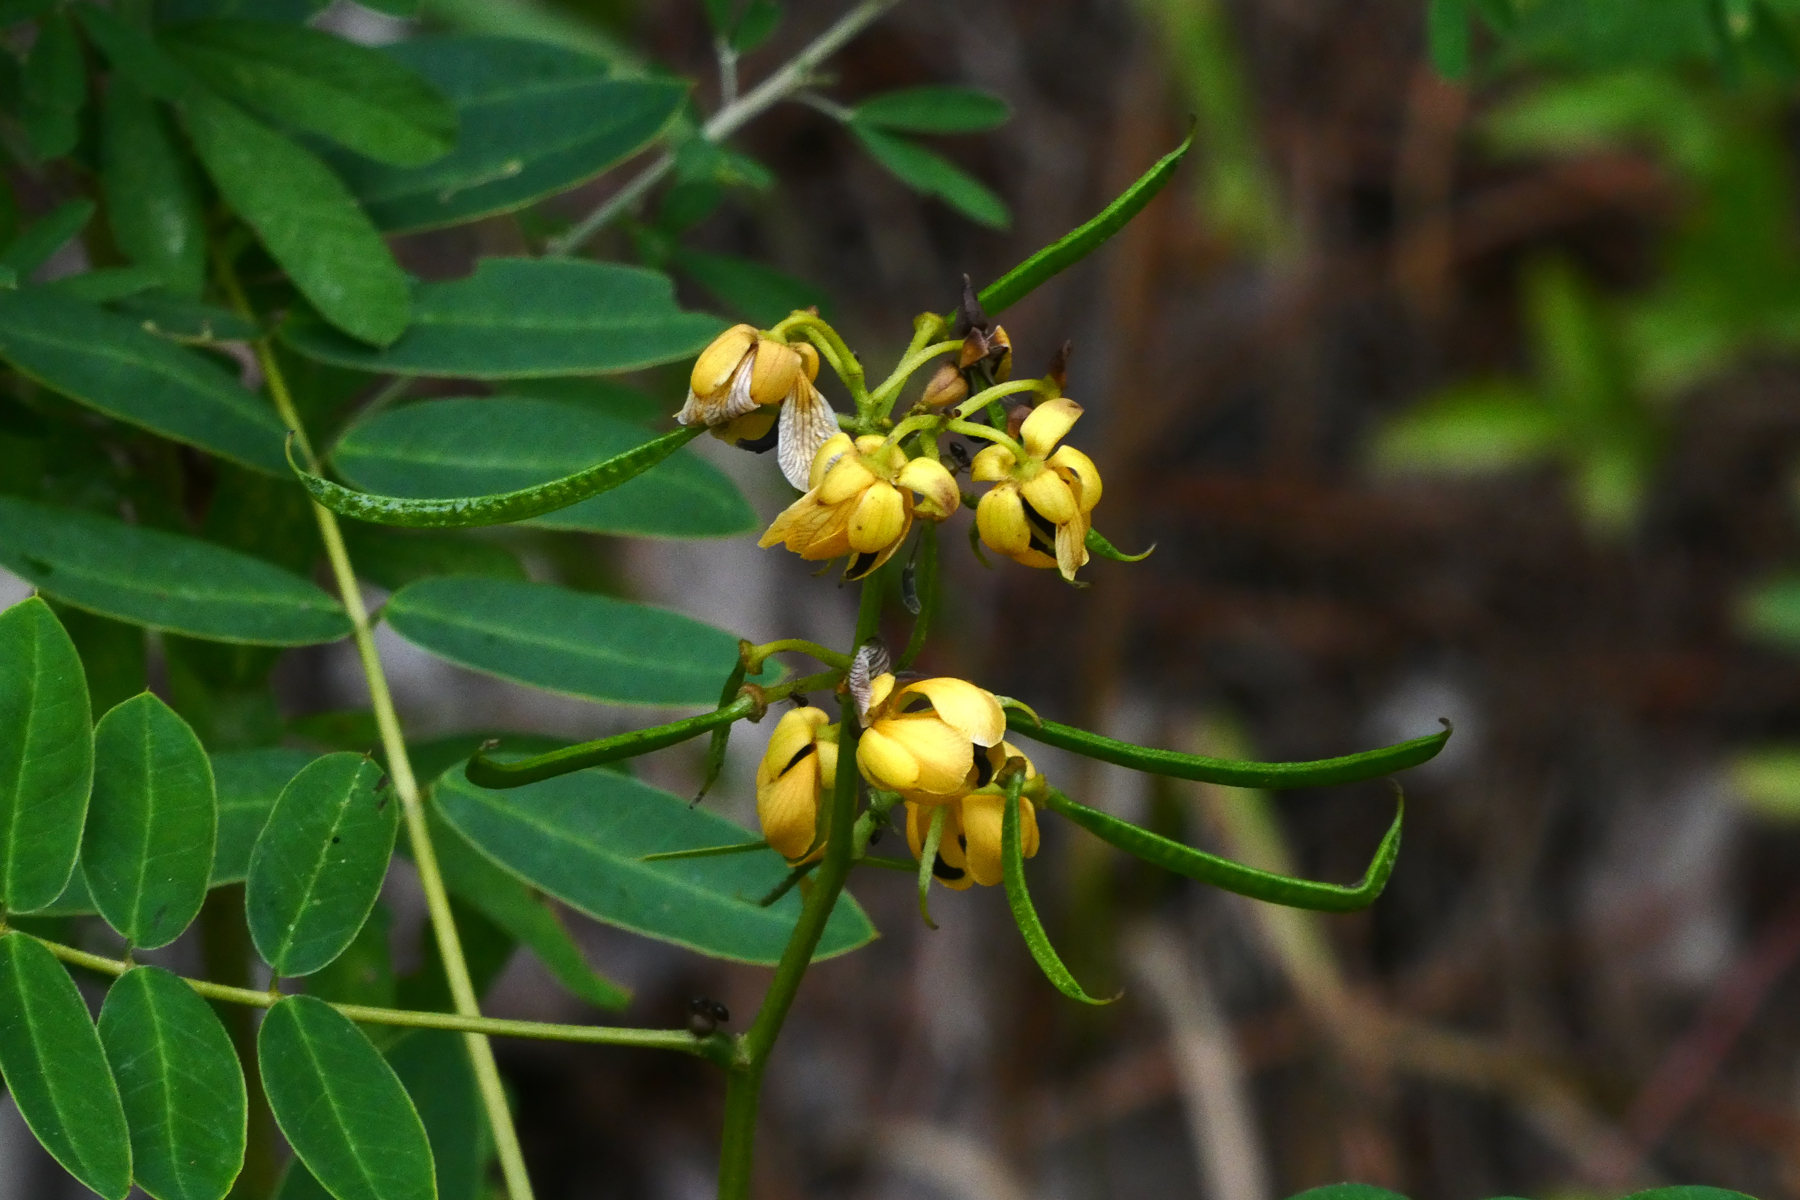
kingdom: Plantae
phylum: Tracheophyta
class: Magnoliopsida
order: Fabales
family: Fabaceae
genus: Senna
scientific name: Senna marilandica
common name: American senna
